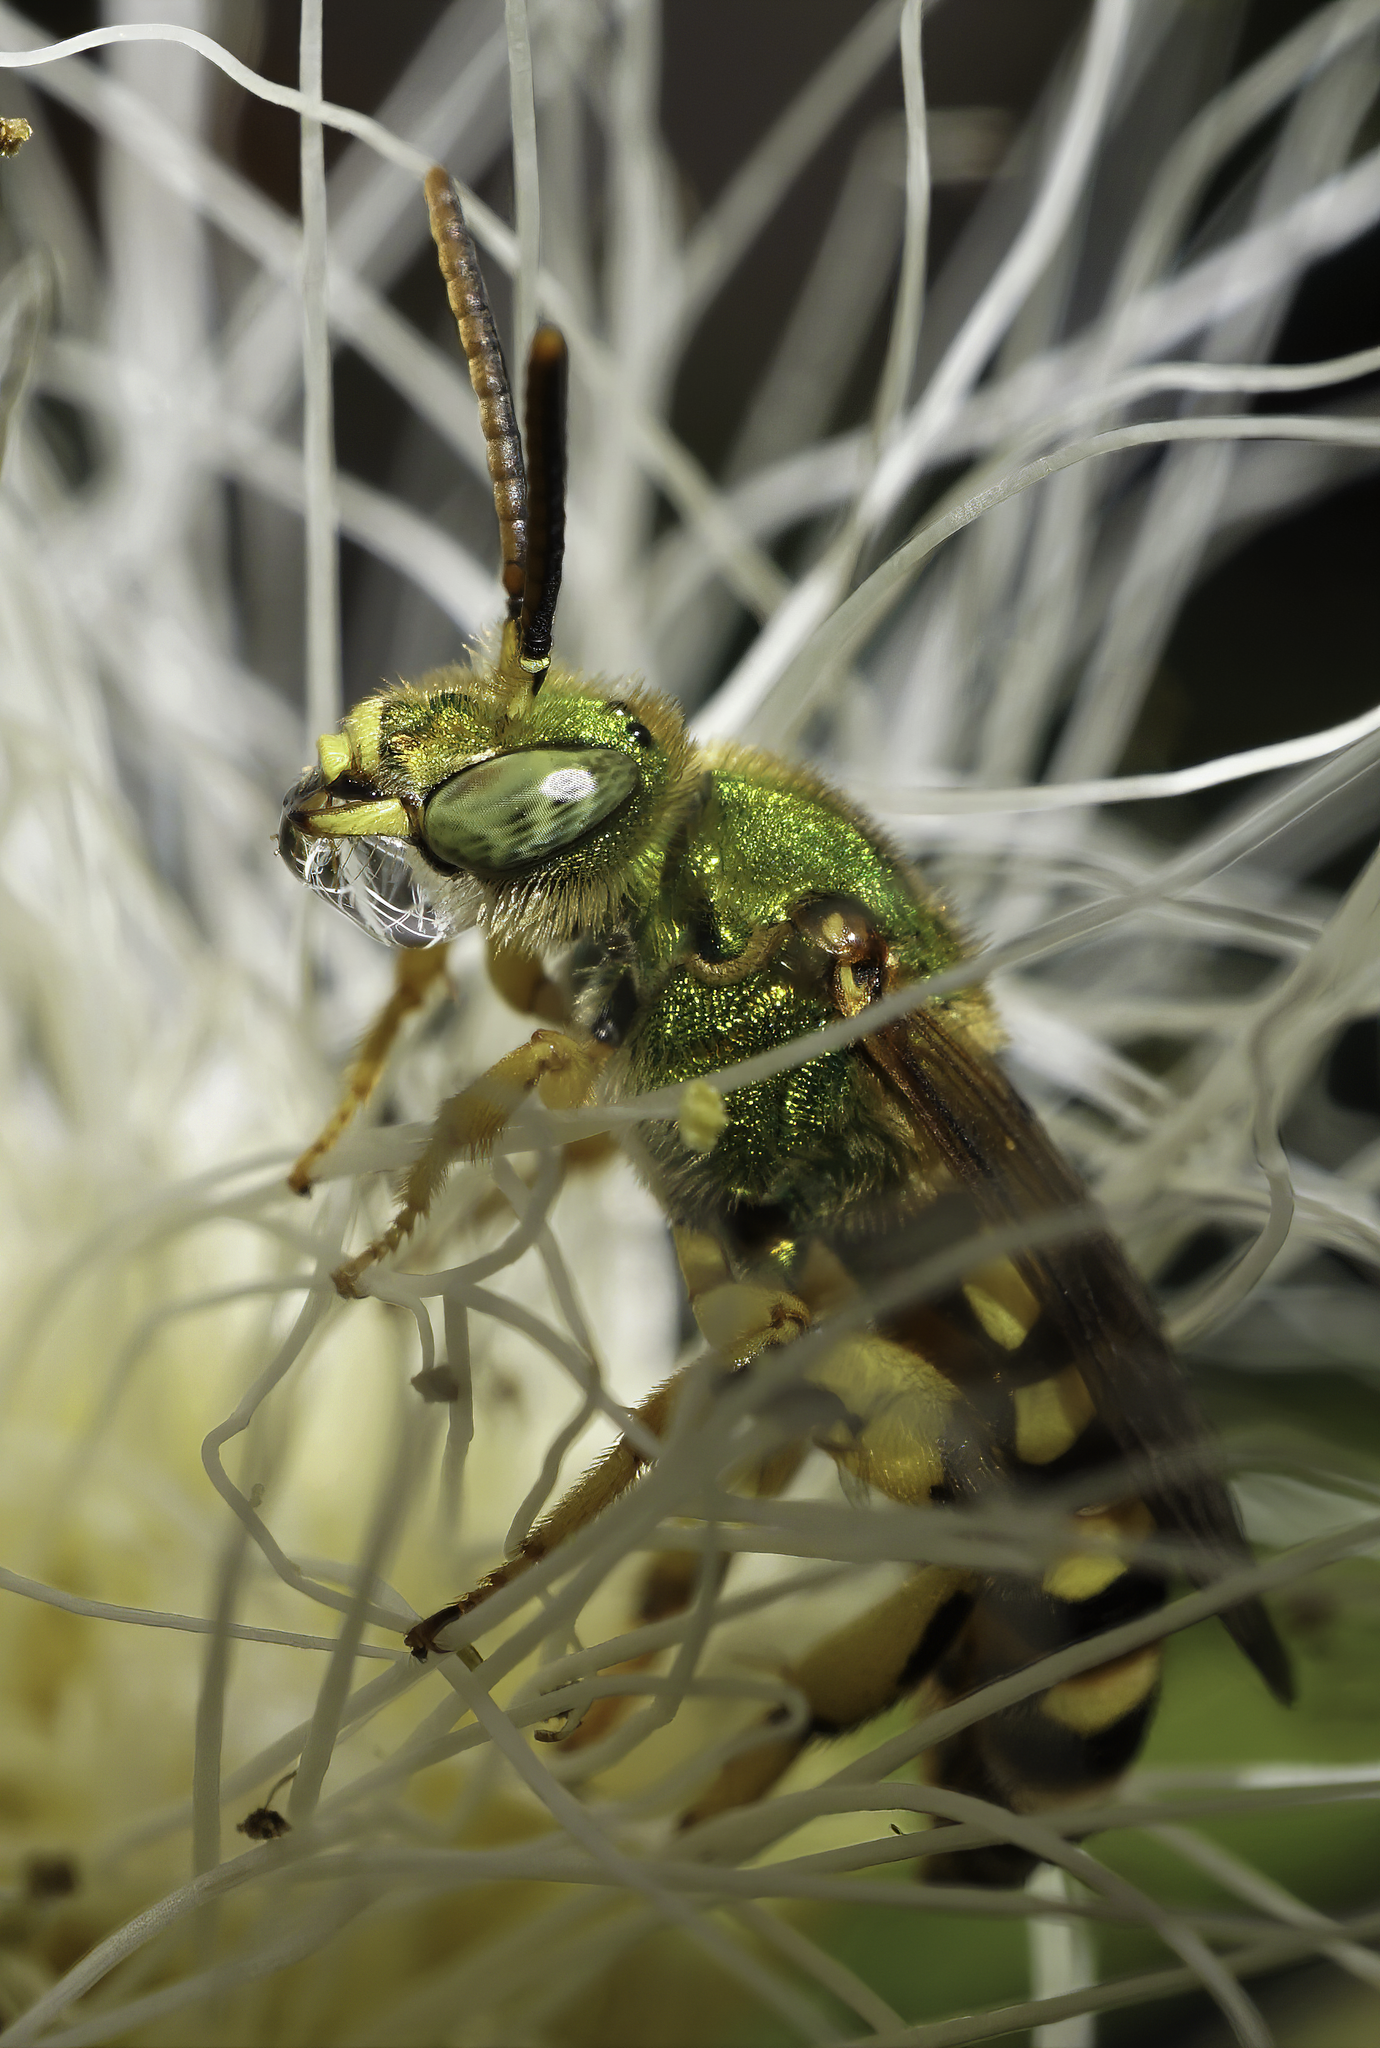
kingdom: Animalia
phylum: Arthropoda
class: Insecta
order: Hymenoptera
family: Halictidae
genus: Agapostemon
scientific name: Agapostemon splendens
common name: Brown-winged striped sweat bee
